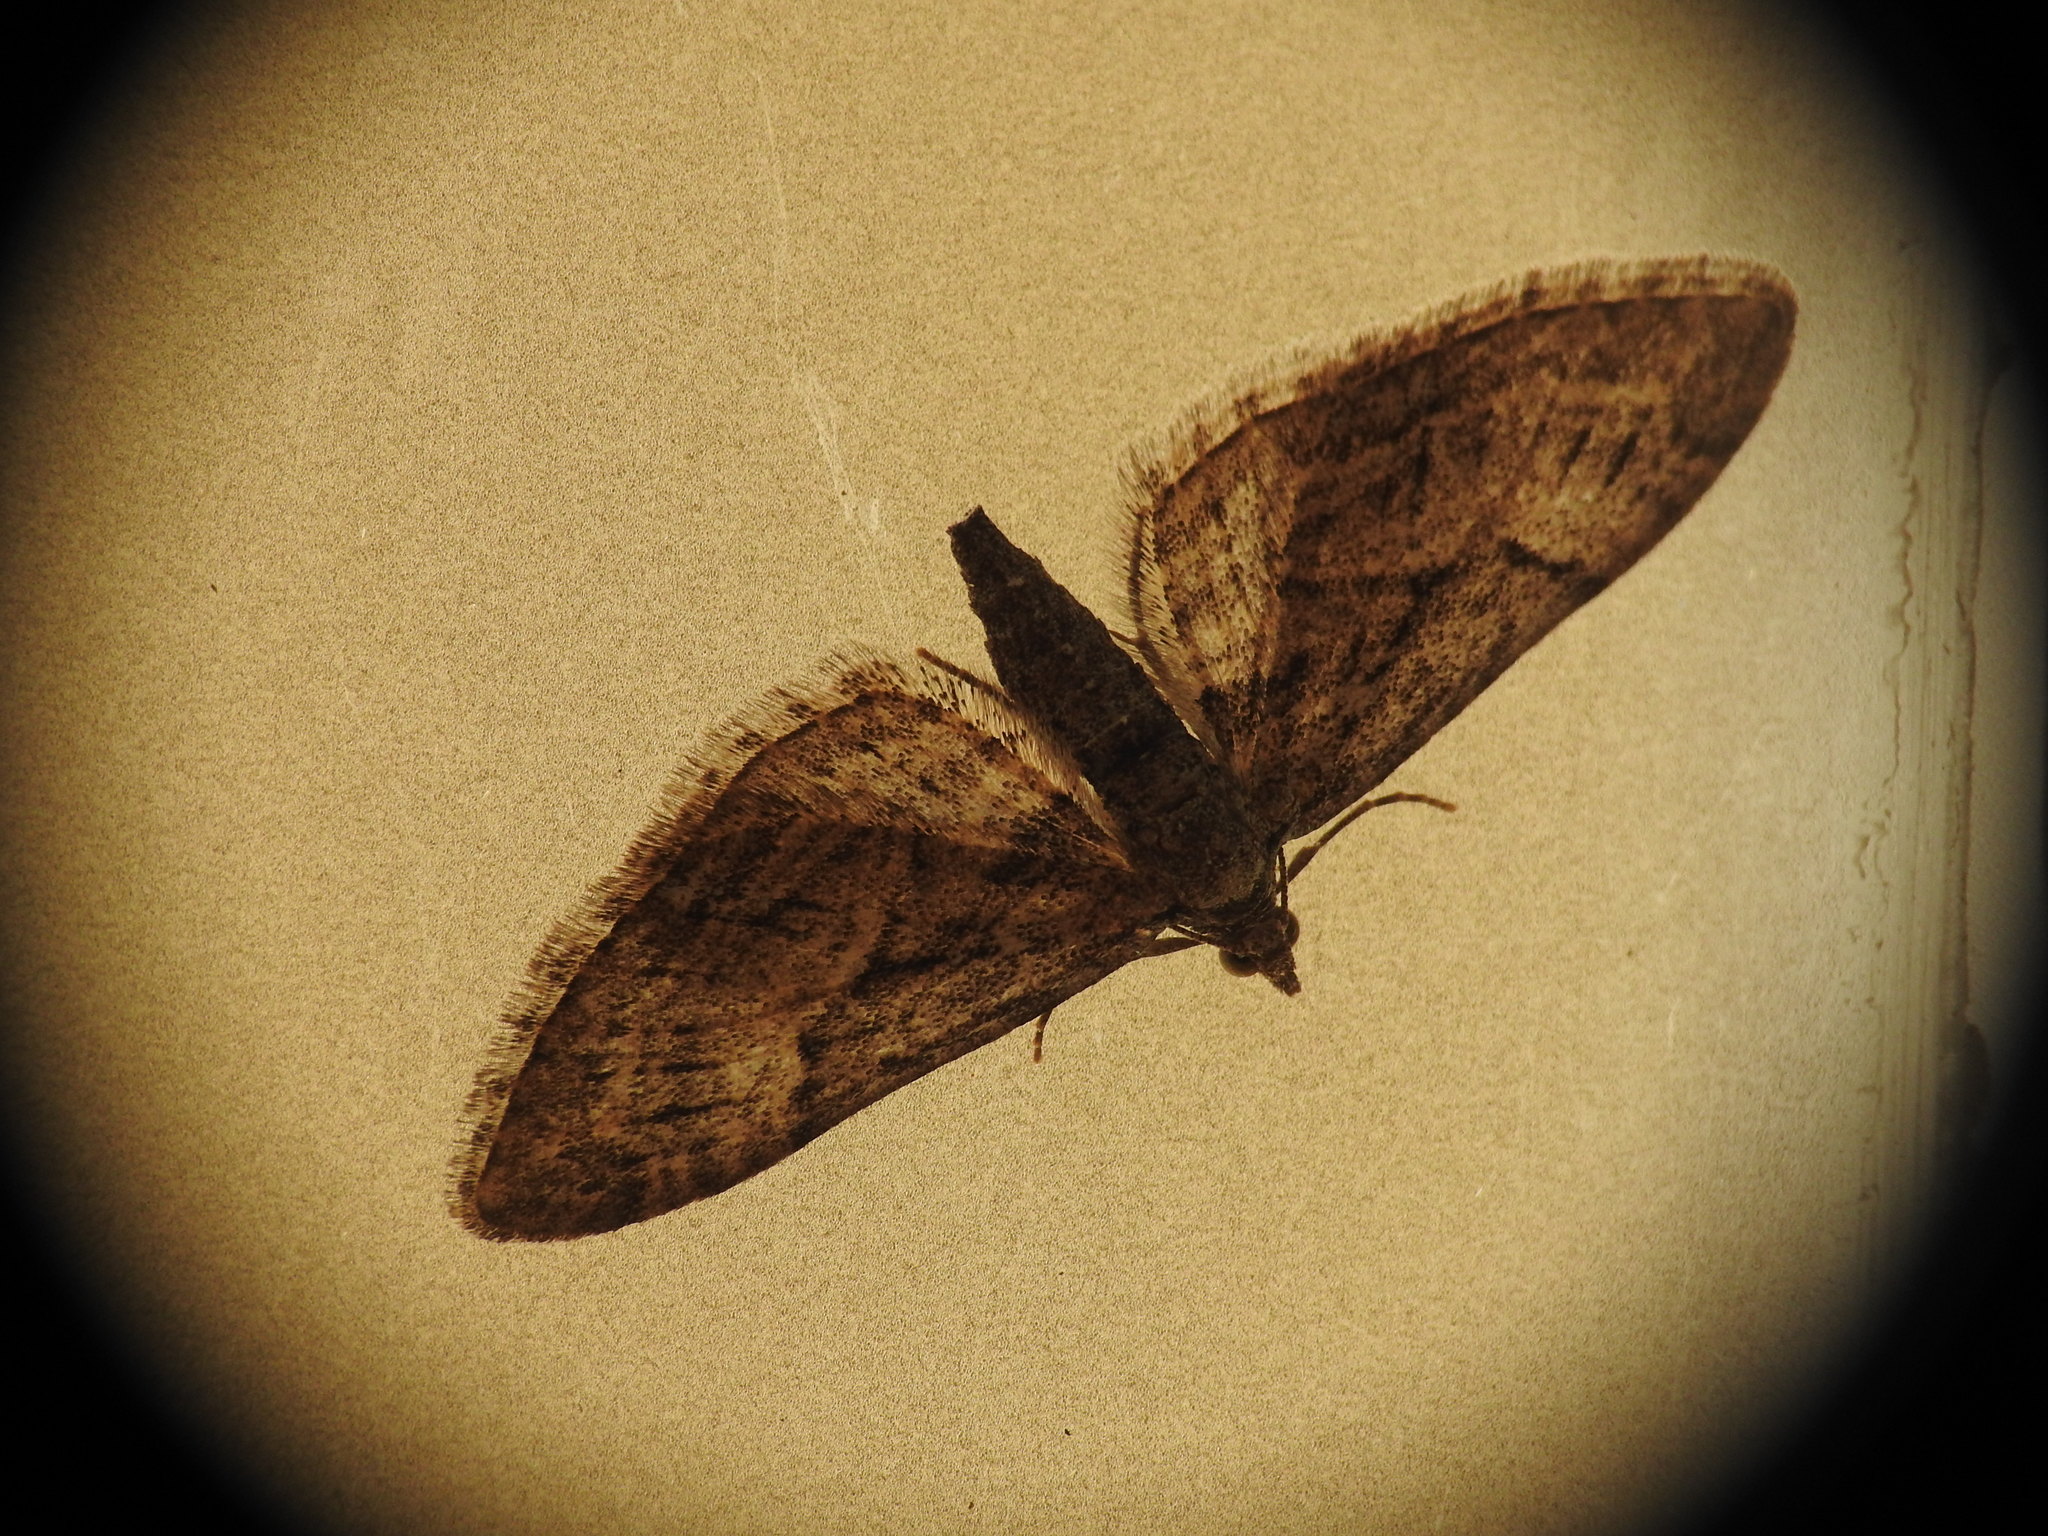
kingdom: Animalia
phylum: Arthropoda
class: Insecta
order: Lepidoptera
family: Geometridae
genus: Eupithecia
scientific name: Eupithecia oxycedrata
